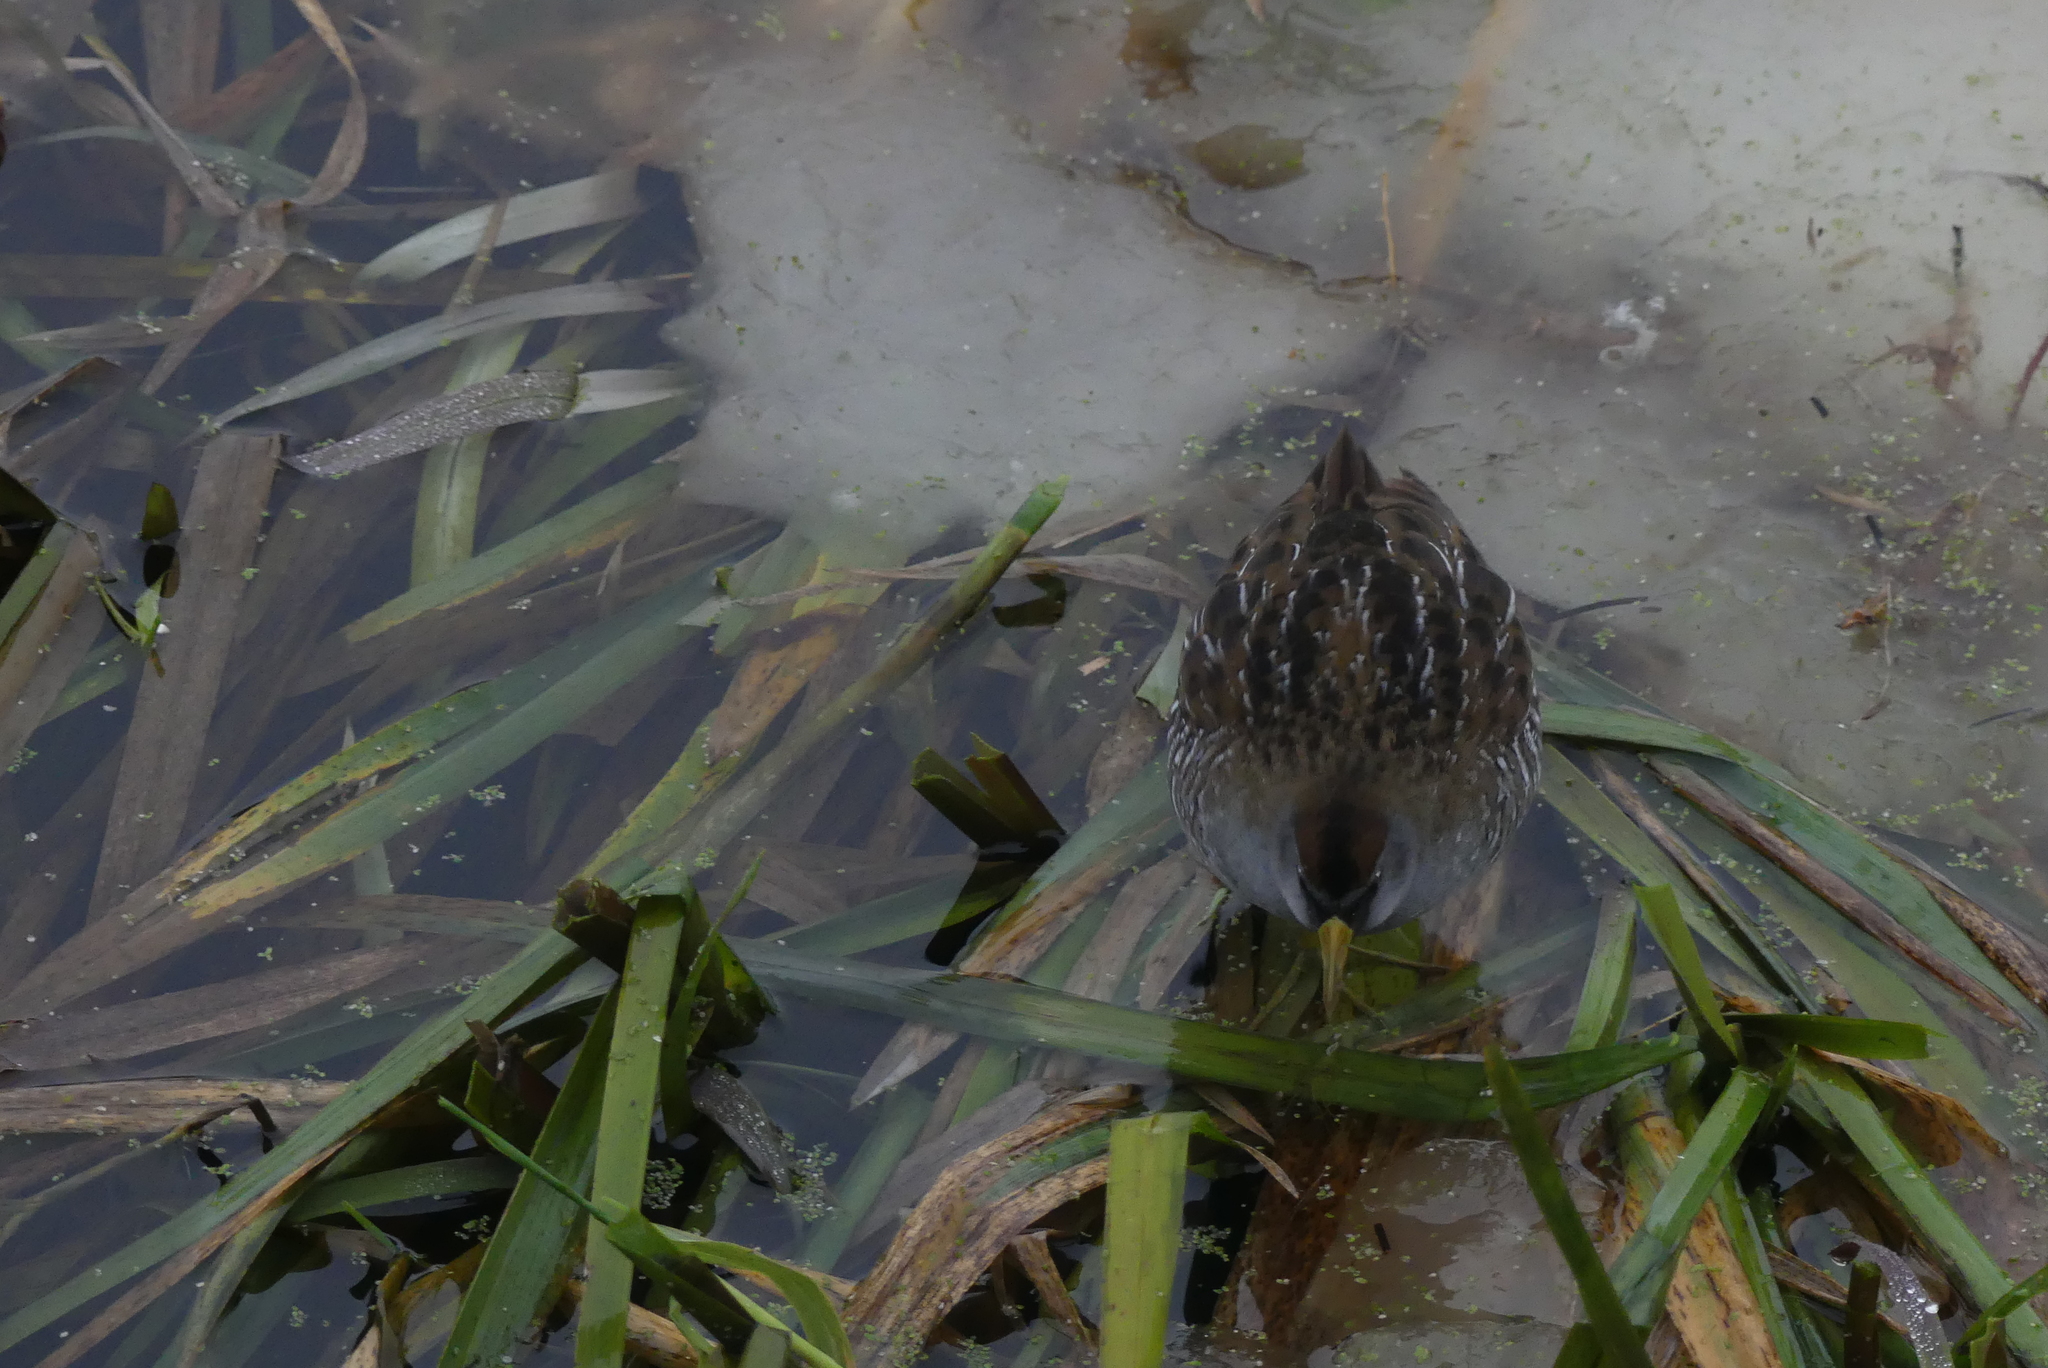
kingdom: Animalia
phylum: Chordata
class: Aves
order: Gruiformes
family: Rallidae
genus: Porzana
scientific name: Porzana carolina
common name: Sora
